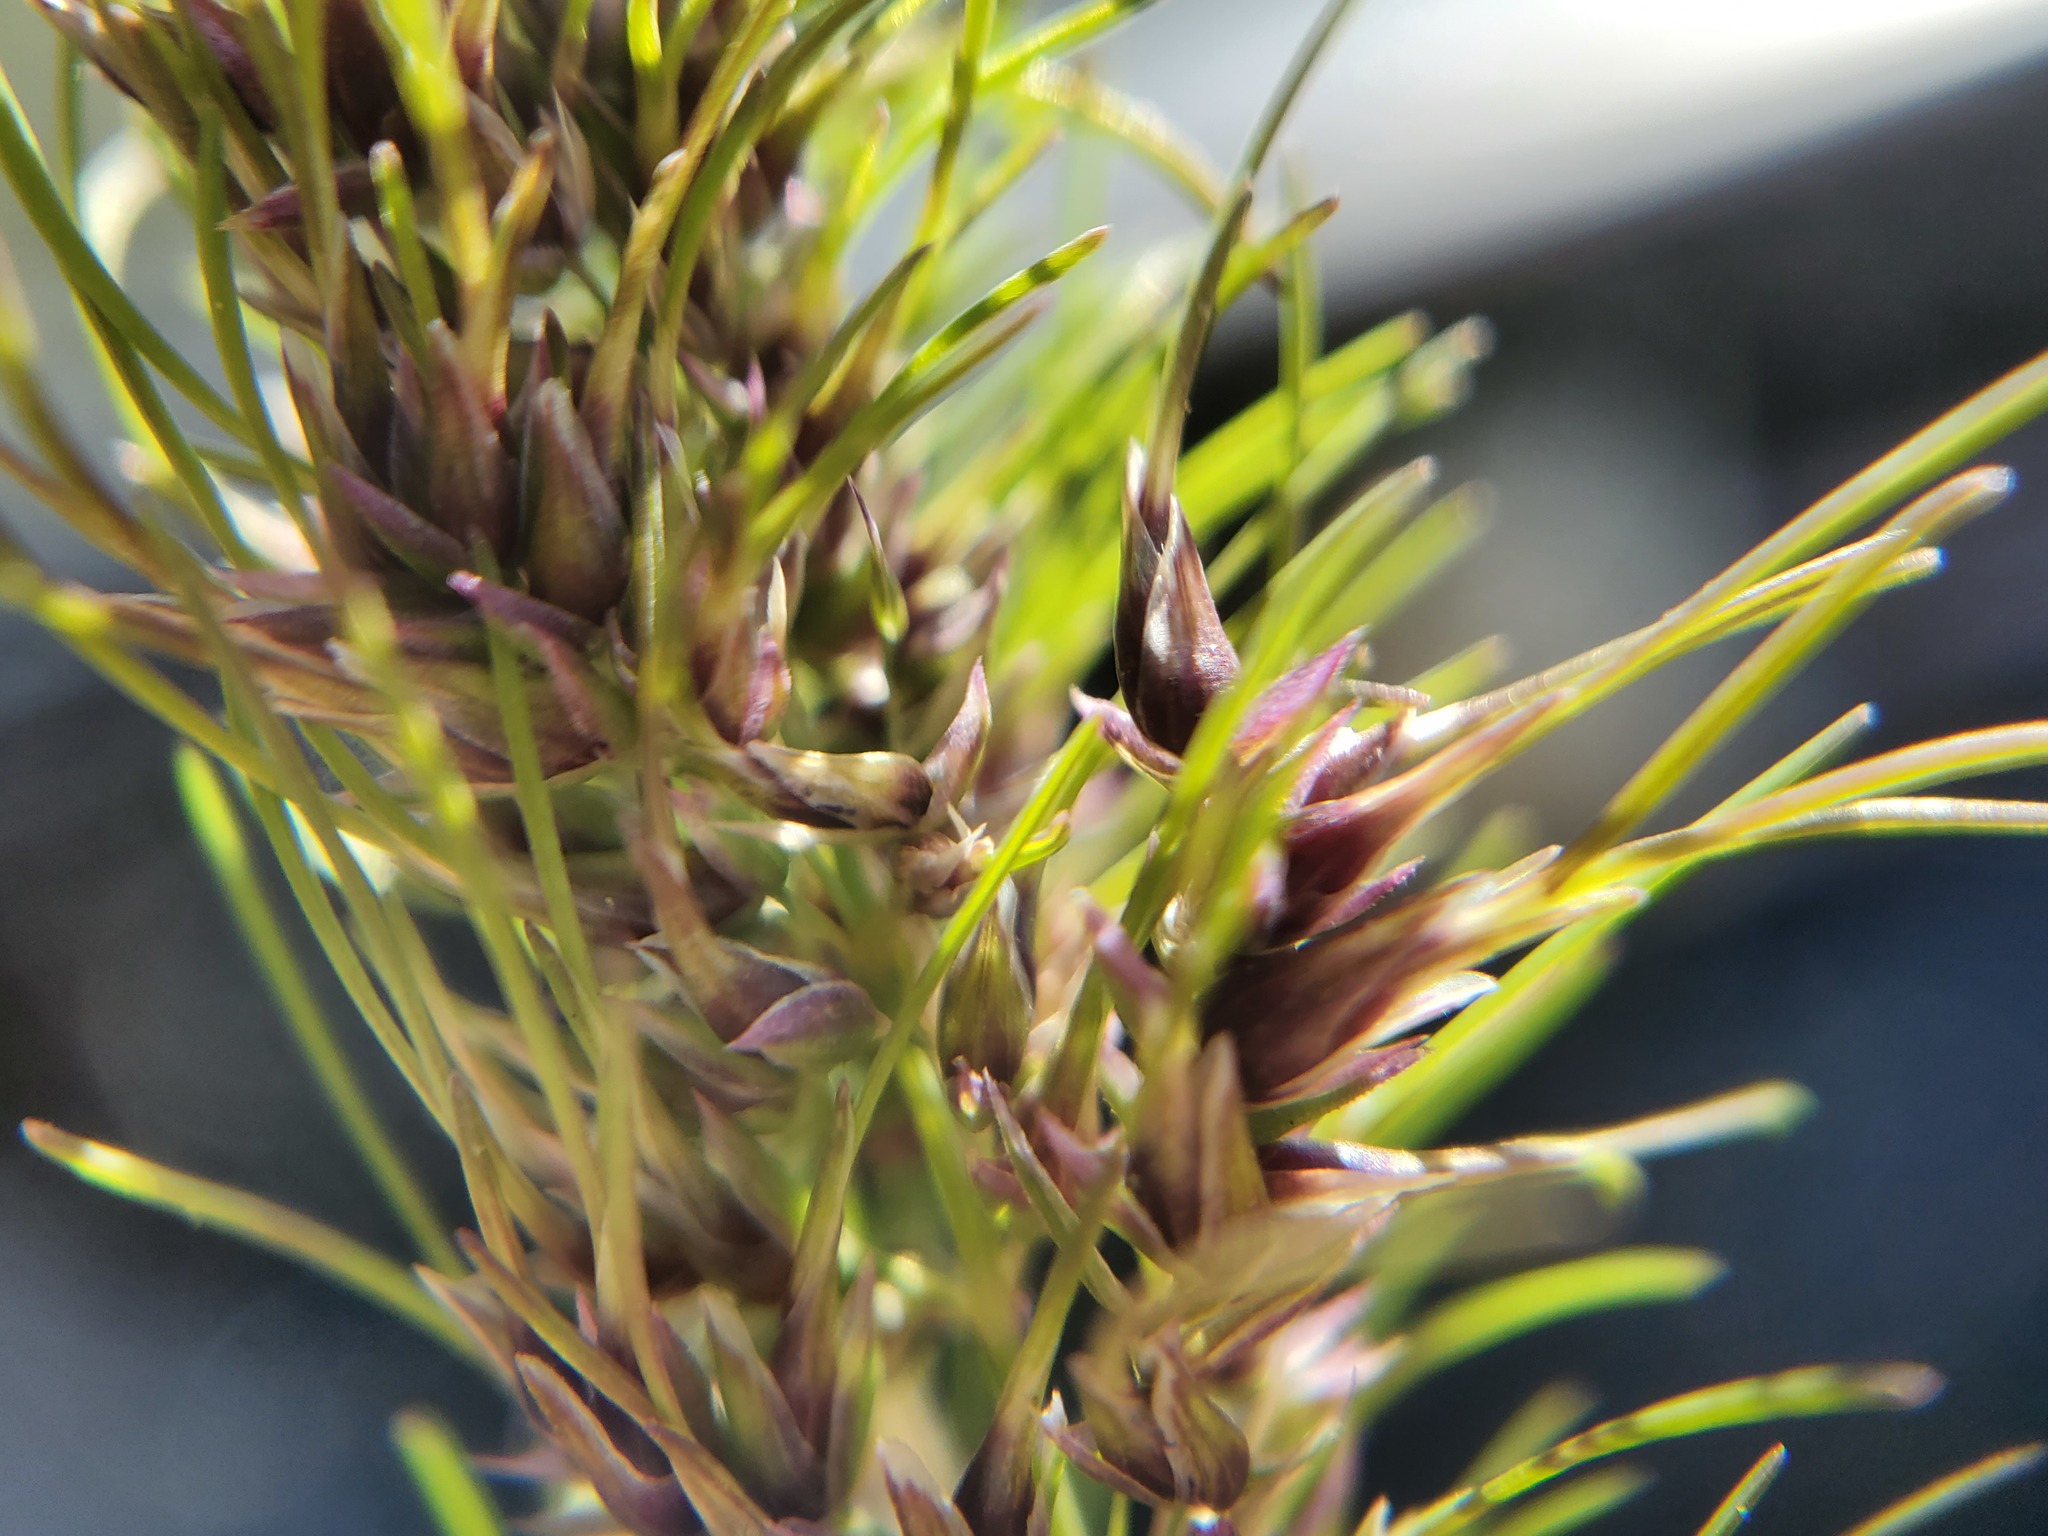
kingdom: Plantae
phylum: Tracheophyta
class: Liliopsida
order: Poales
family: Poaceae
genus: Poa
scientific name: Poa bulbosa
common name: Bulbous bluegrass
